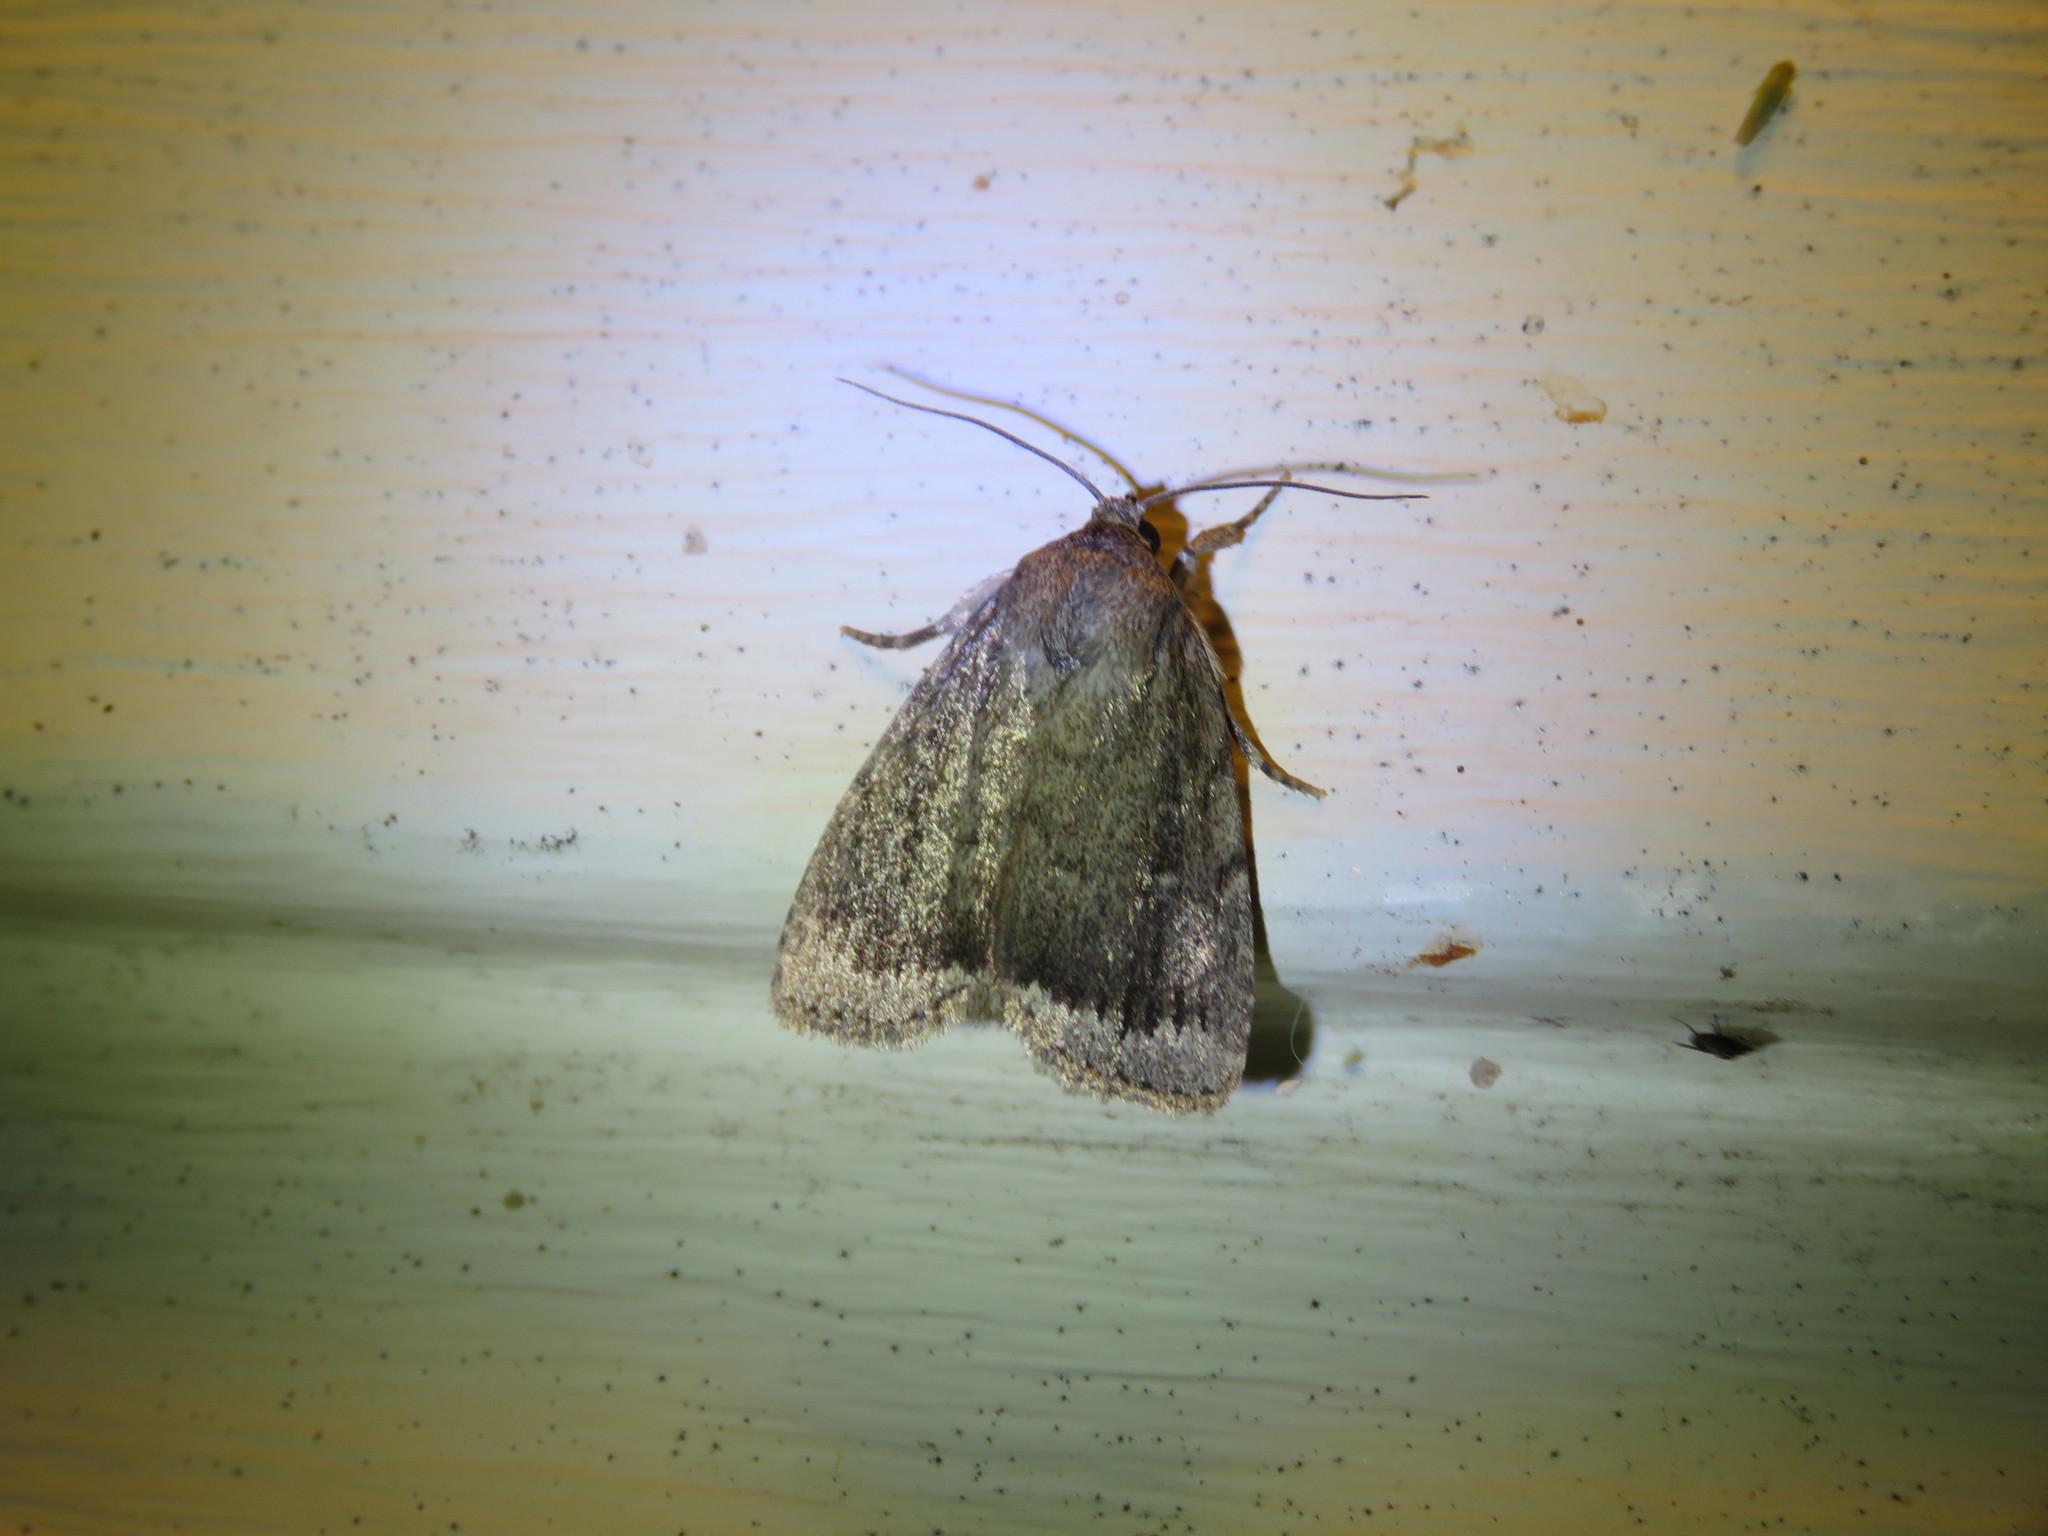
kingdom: Animalia
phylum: Arthropoda
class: Insecta
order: Lepidoptera
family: Noctuidae
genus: Amphipyra
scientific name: Amphipyra glabella
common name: Smooth amphipyra moth
